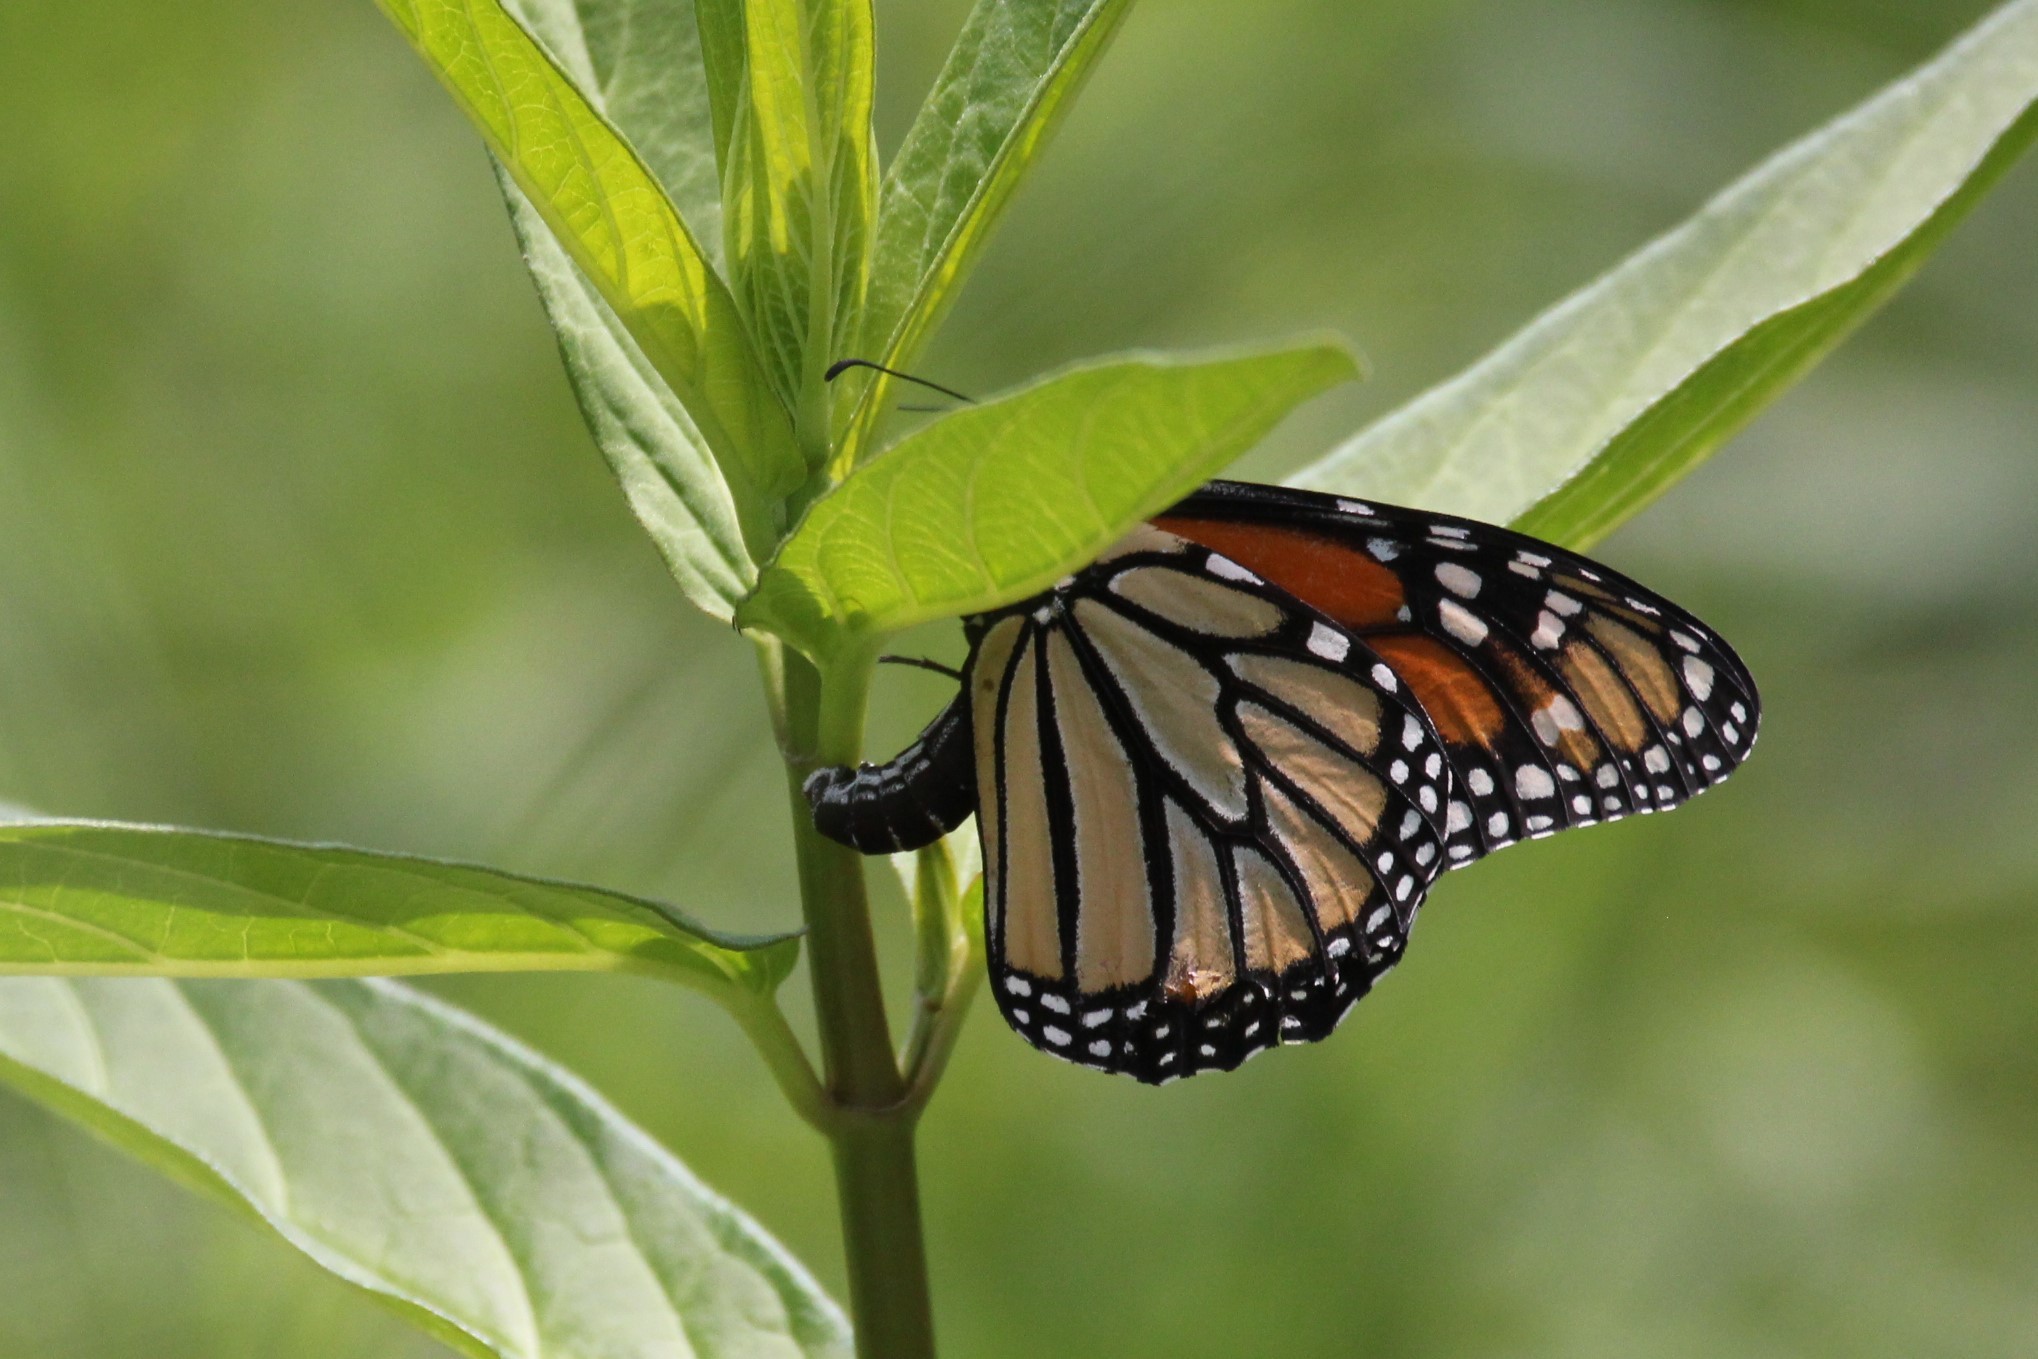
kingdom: Animalia
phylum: Arthropoda
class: Insecta
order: Lepidoptera
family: Nymphalidae
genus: Danaus
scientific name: Danaus plexippus
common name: Monarch
